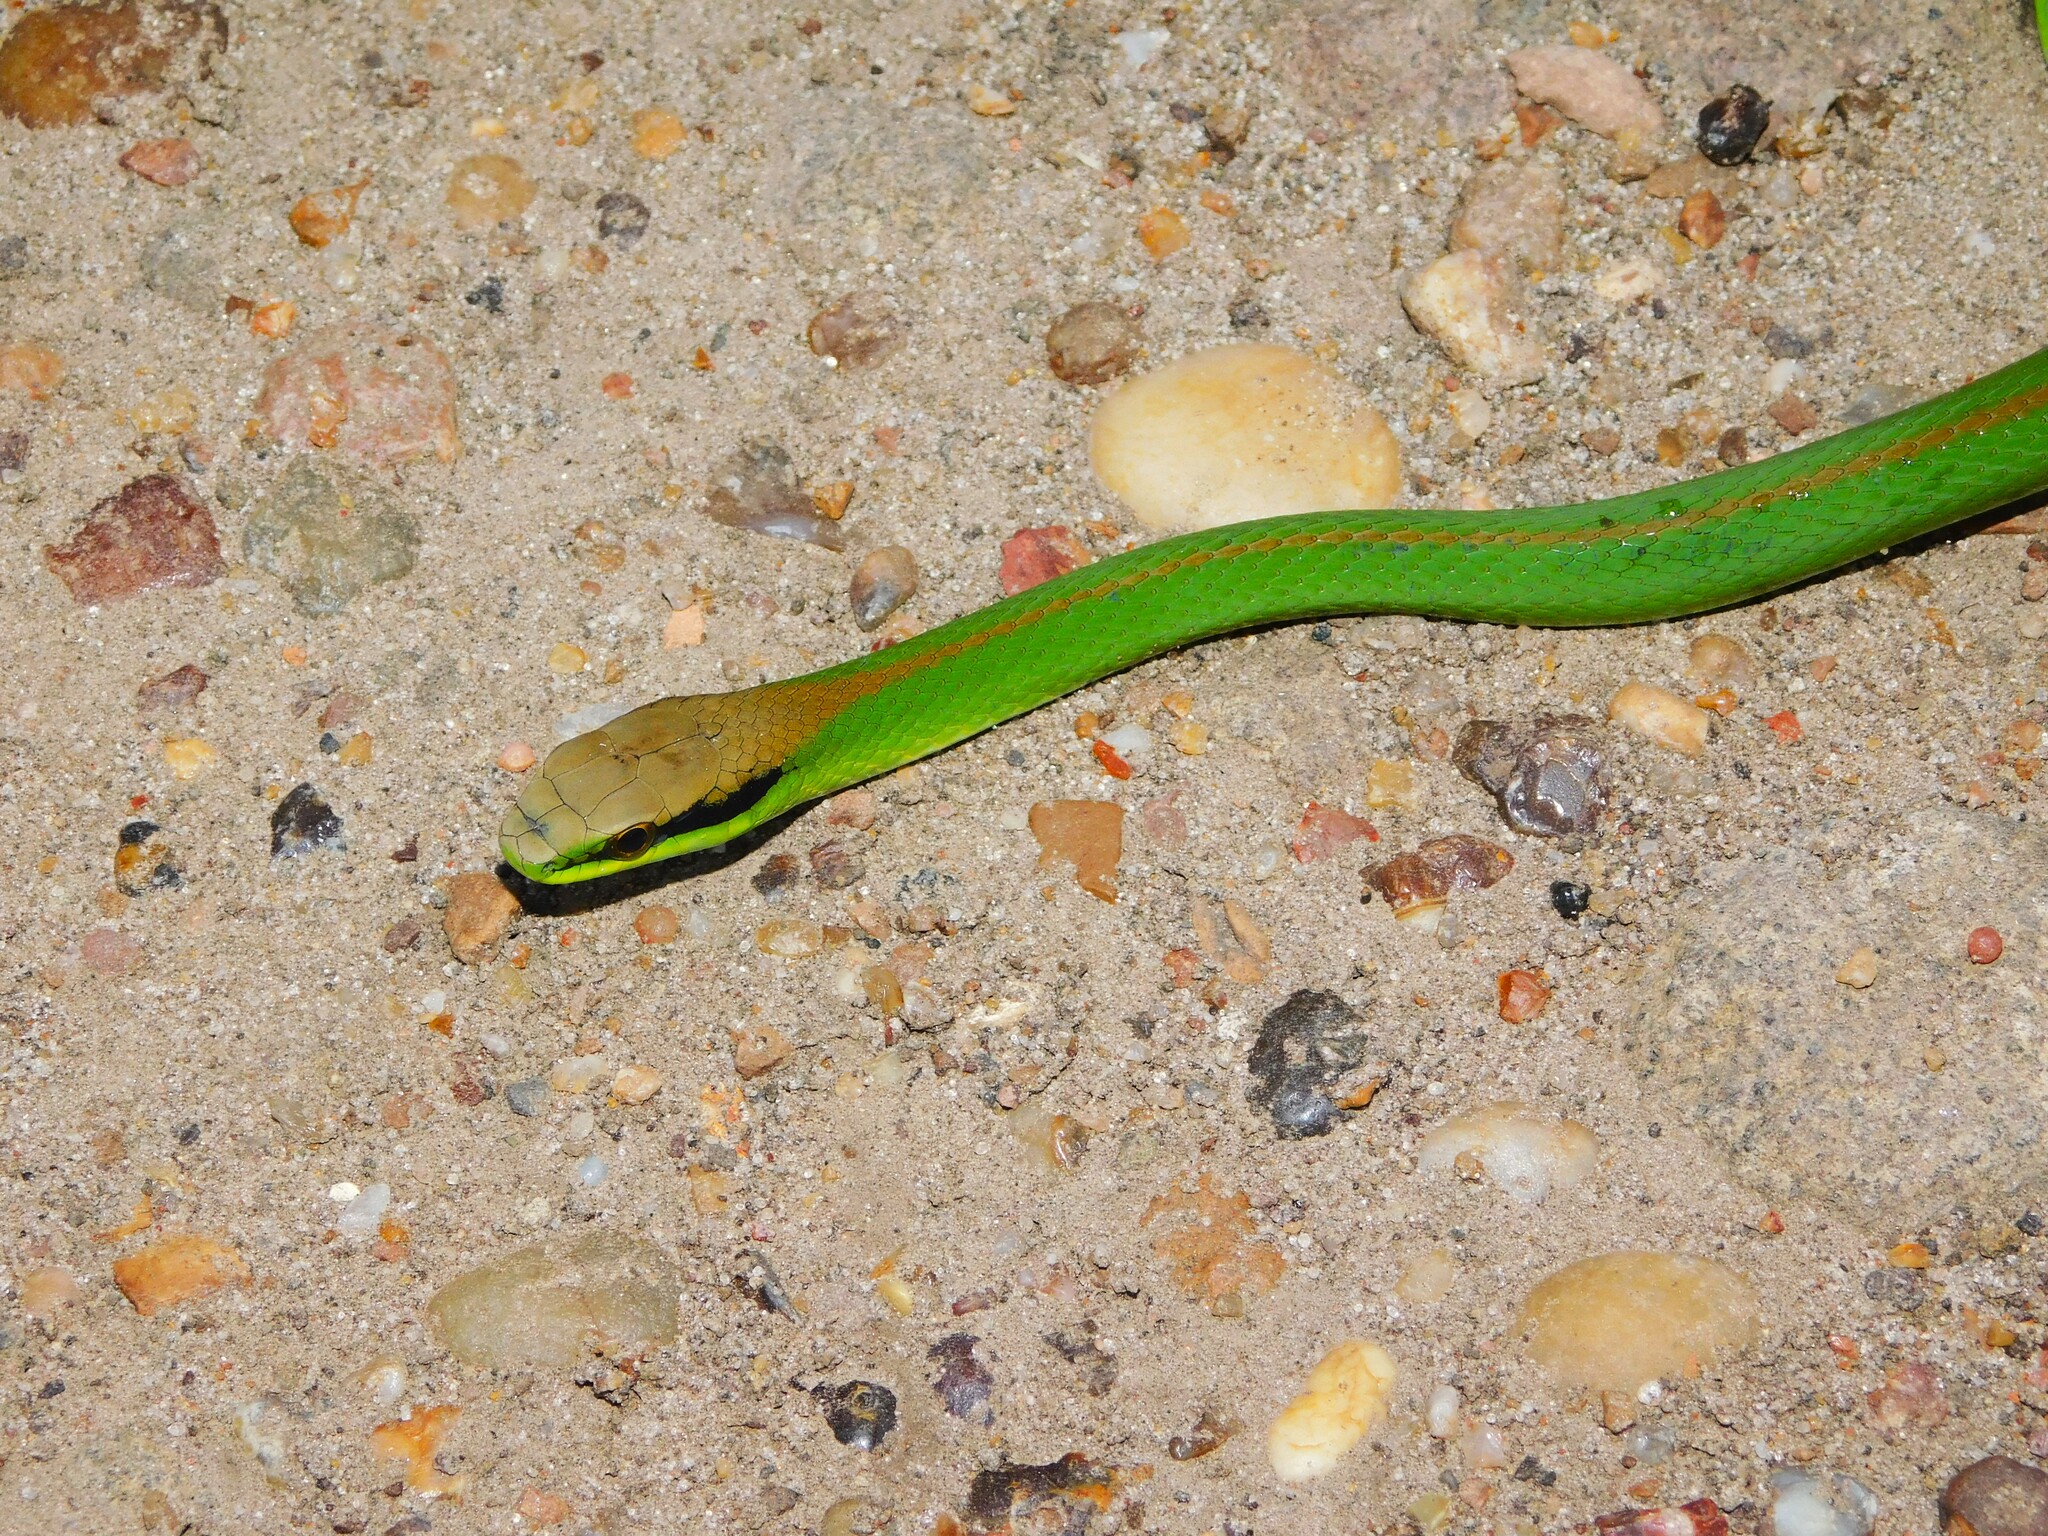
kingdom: Animalia
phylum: Chordata
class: Squamata
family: Colubridae
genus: Philodryas
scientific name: Philodryas olfersii
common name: Lichtenstein's green racer
